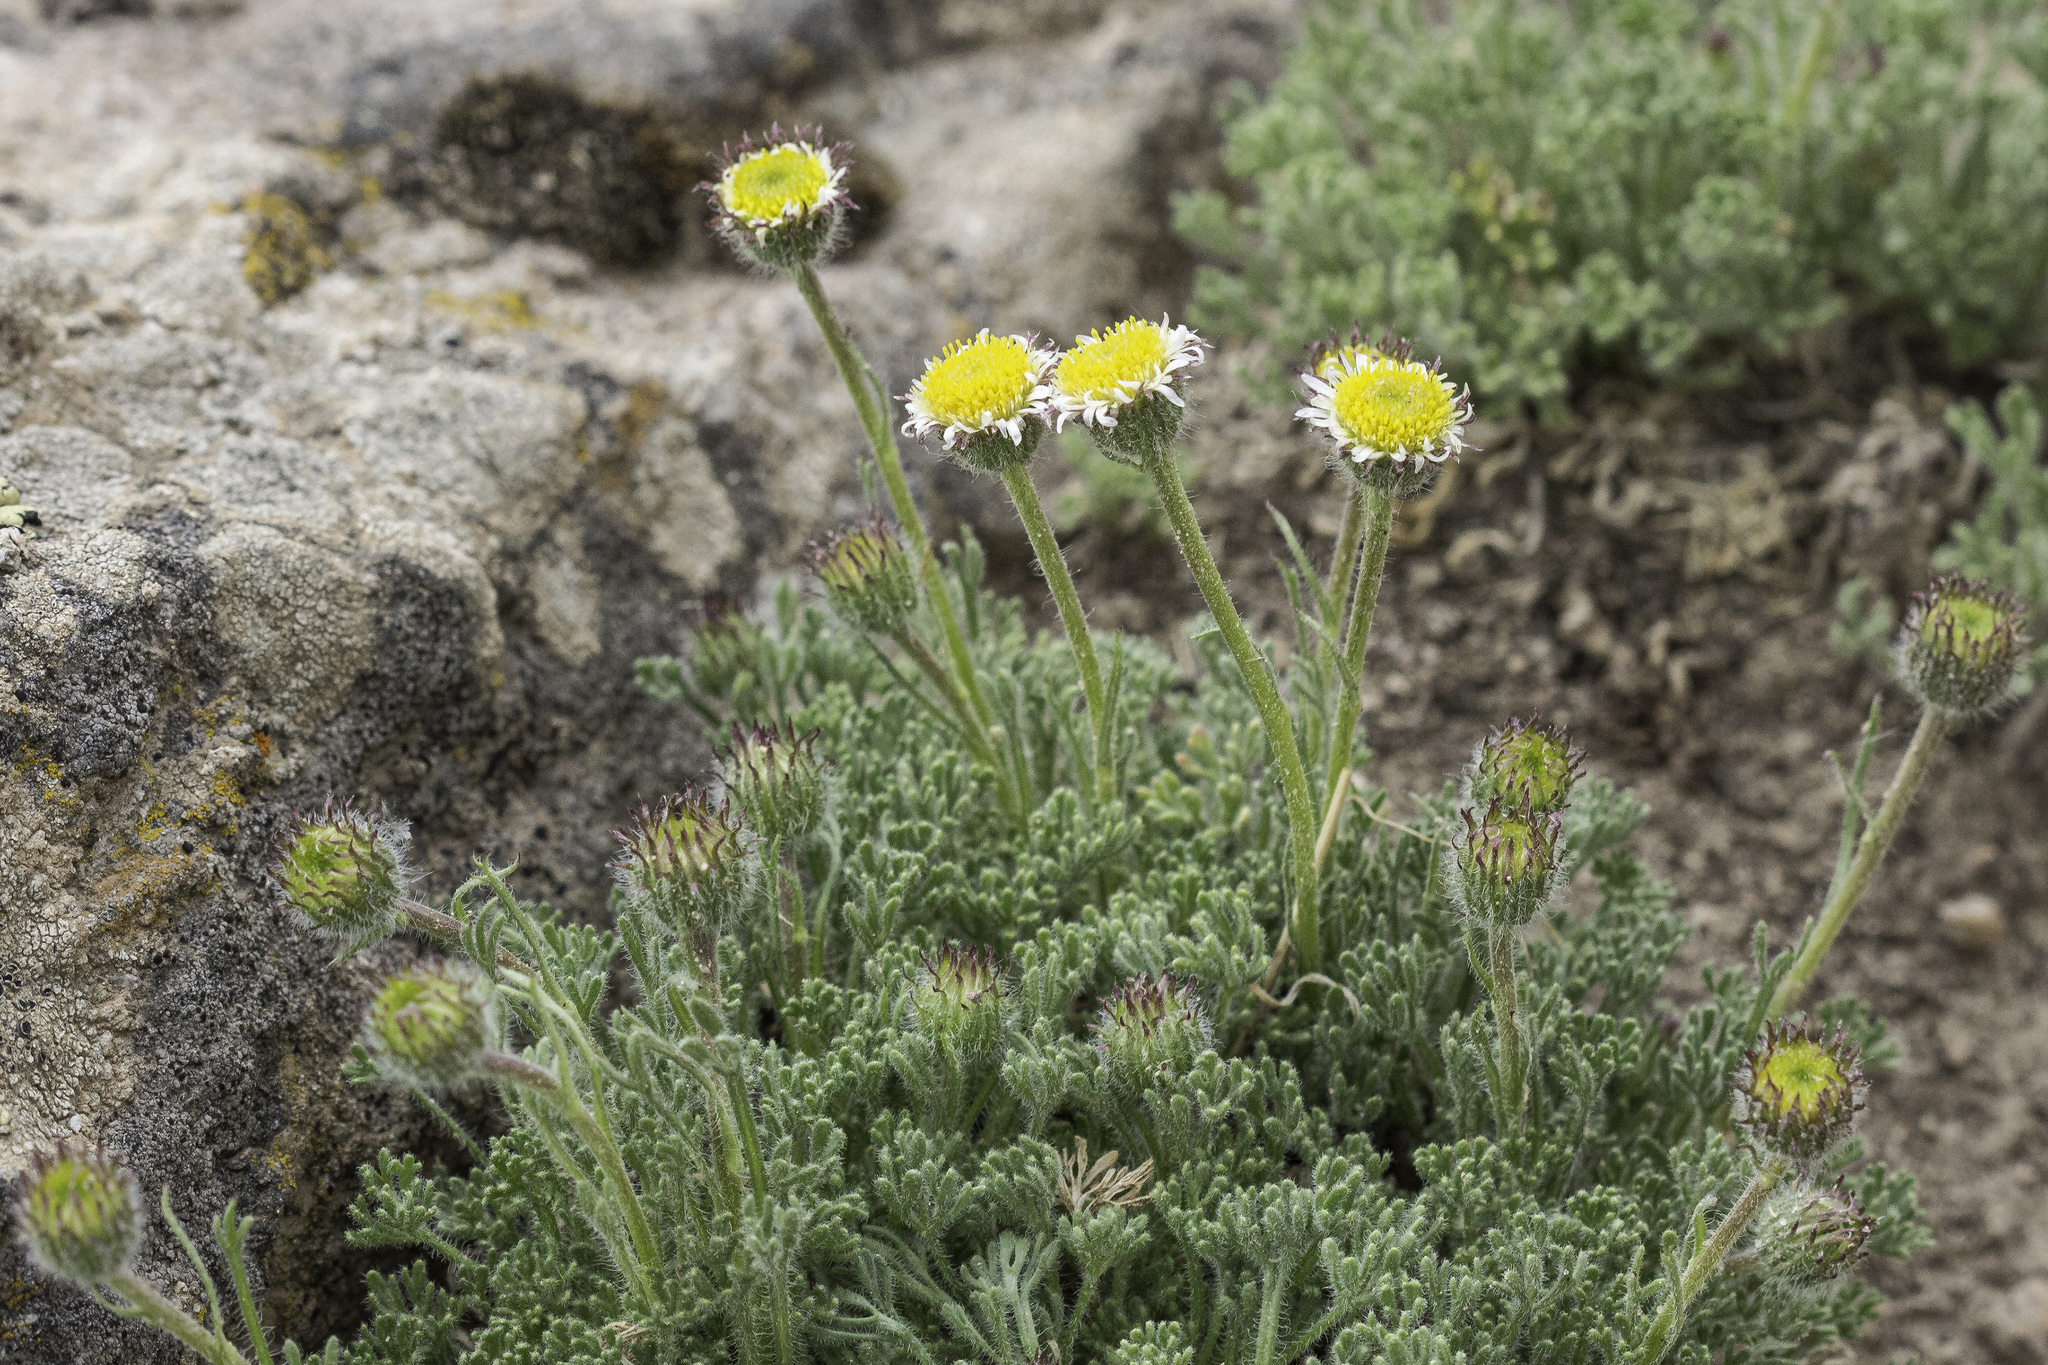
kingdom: Plantae
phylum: Tracheophyta
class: Magnoliopsida
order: Asterales
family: Asteraceae
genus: Erigeron
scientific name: Erigeron compositus
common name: Dwarf mountain fleabane
